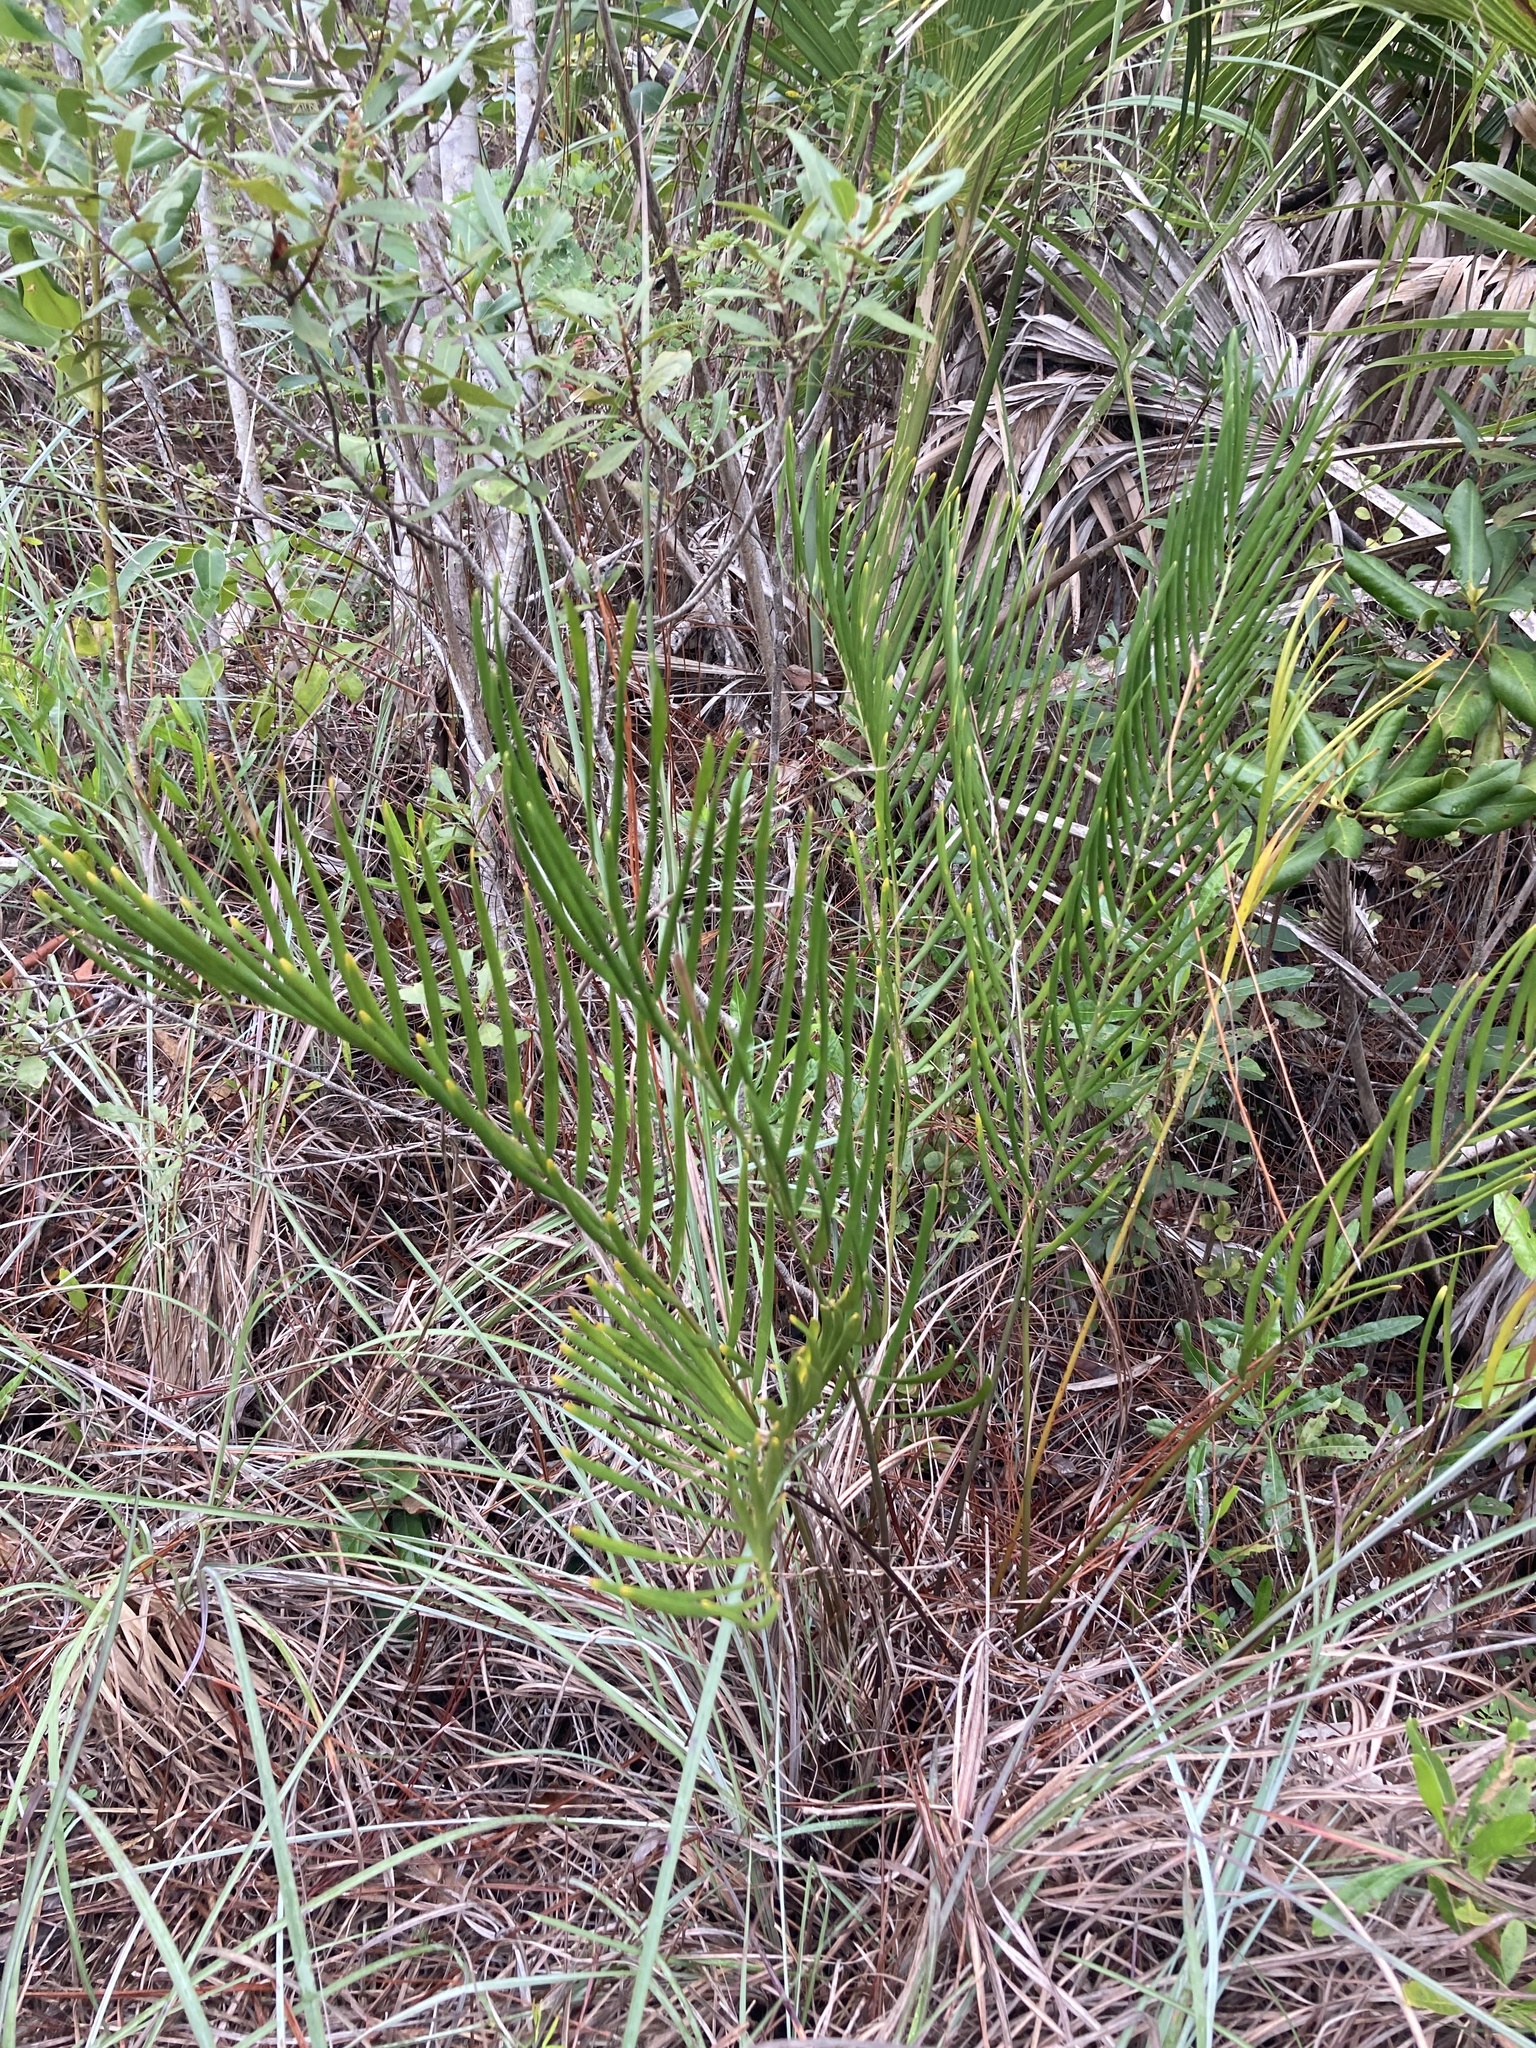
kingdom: Plantae
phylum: Tracheophyta
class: Cycadopsida
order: Cycadales
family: Zamiaceae
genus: Zamia
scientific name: Zamia integrifolia
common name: Florida arrowroot
